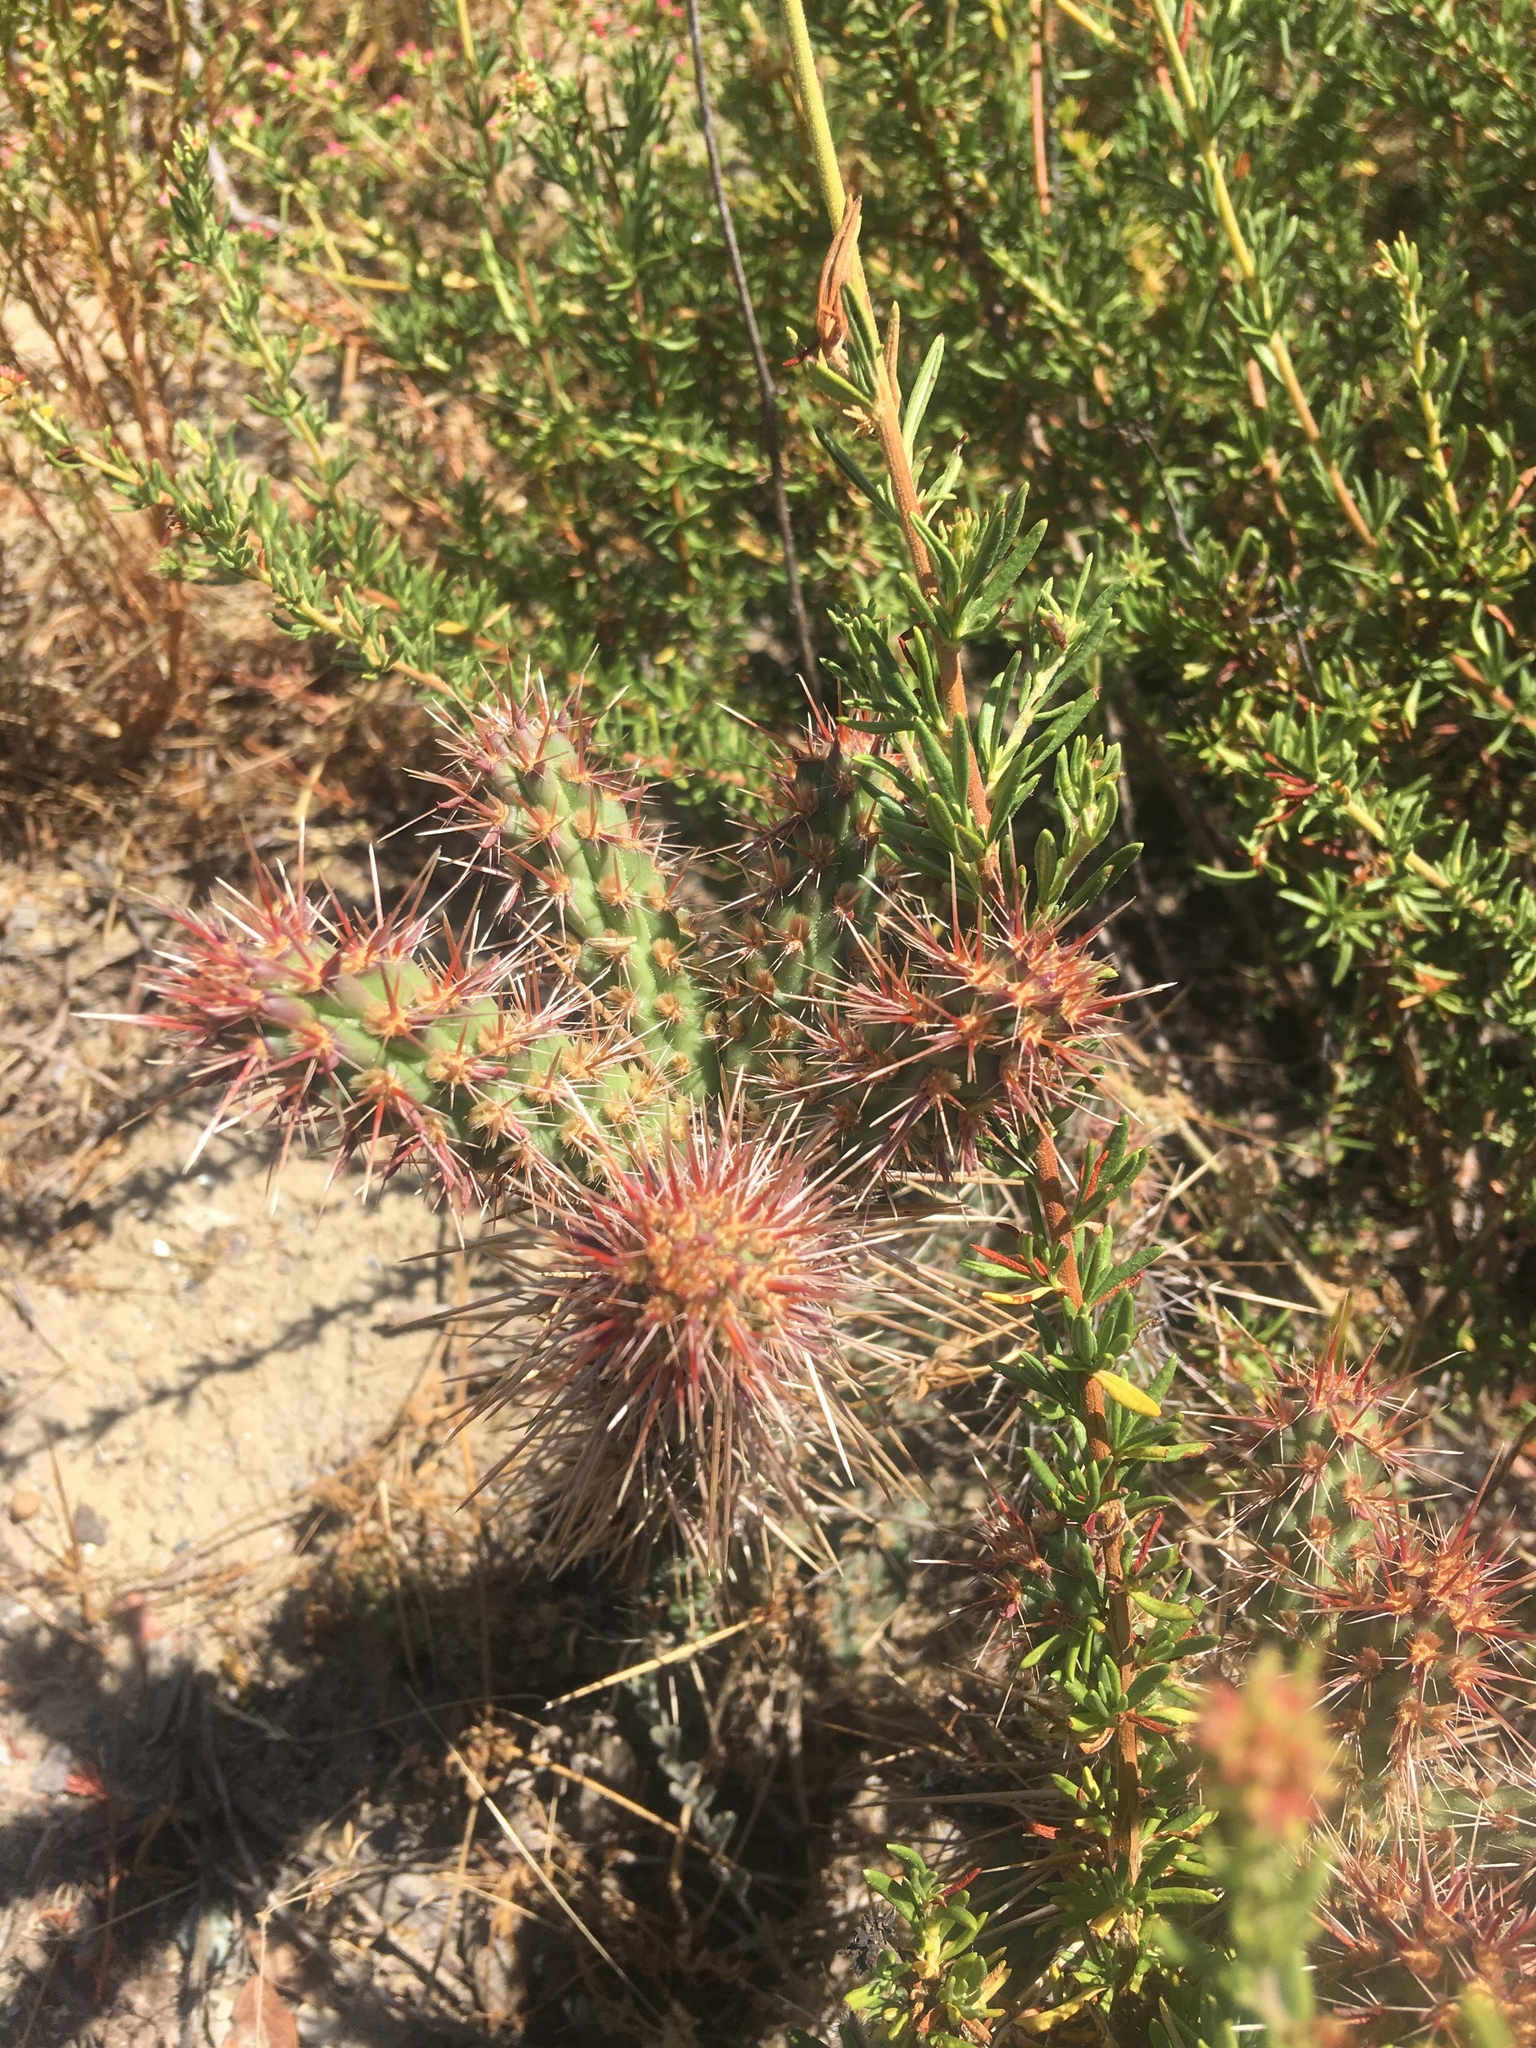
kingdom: Plantae
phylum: Tracheophyta
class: Magnoliopsida
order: Caryophyllales
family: Cactaceae
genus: Cylindropuntia
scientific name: Cylindropuntia prolifera
